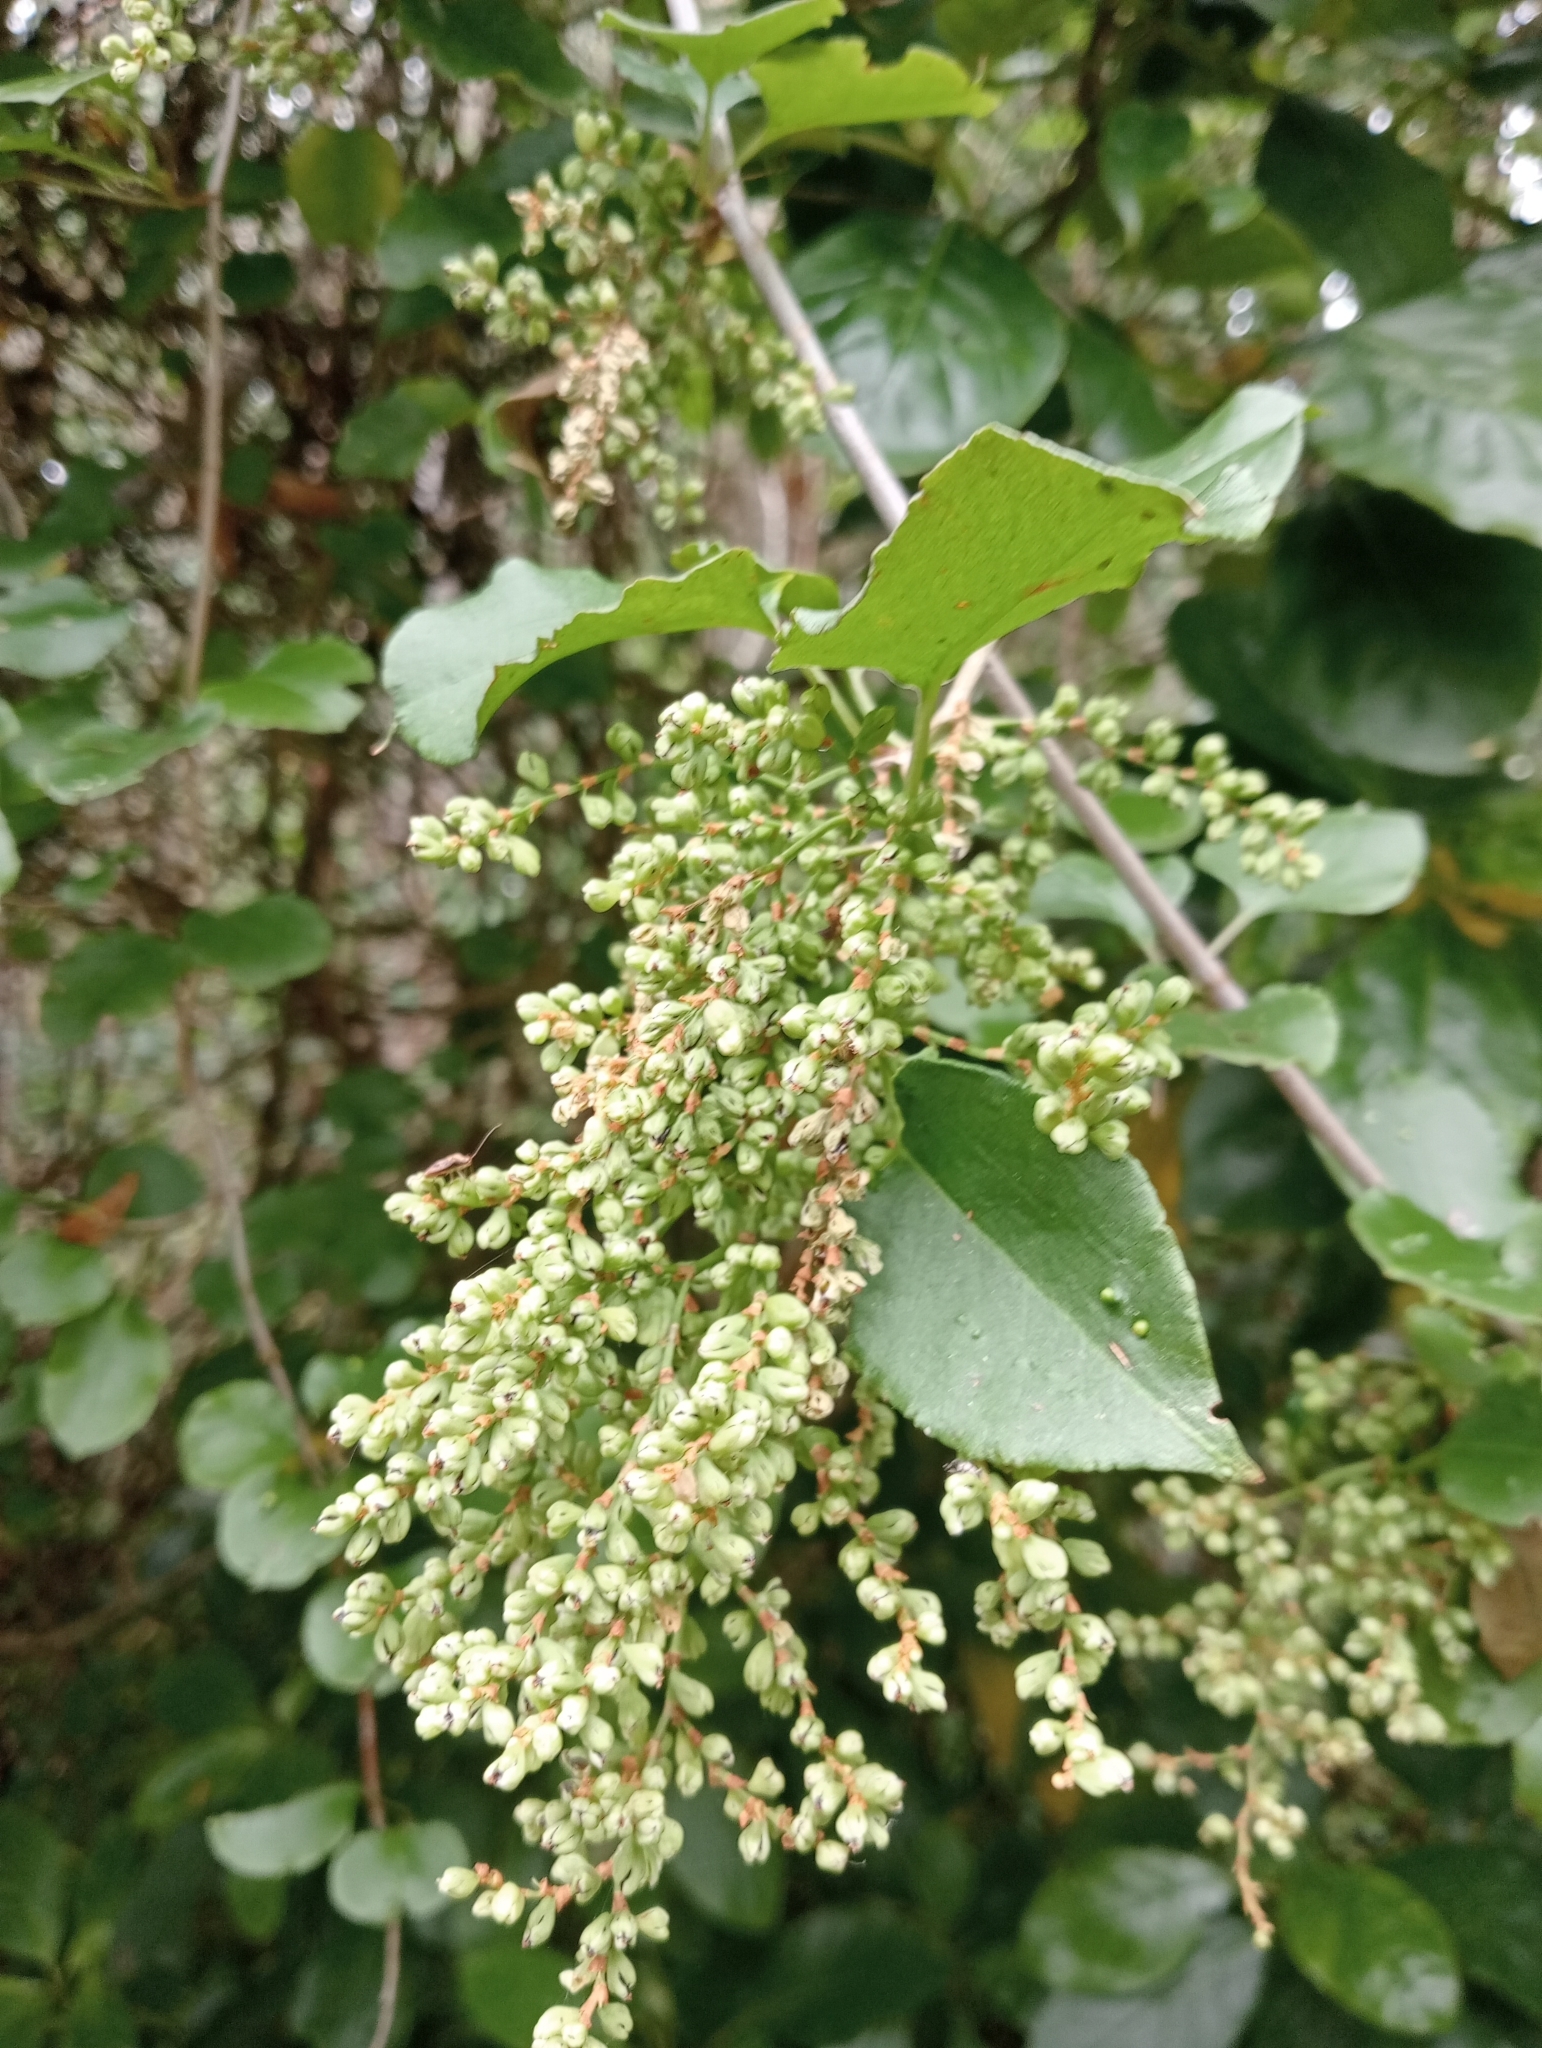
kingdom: Plantae
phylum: Tracheophyta
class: Magnoliopsida
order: Caryophyllales
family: Polygonaceae
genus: Muehlenbeckia
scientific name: Muehlenbeckia australis
